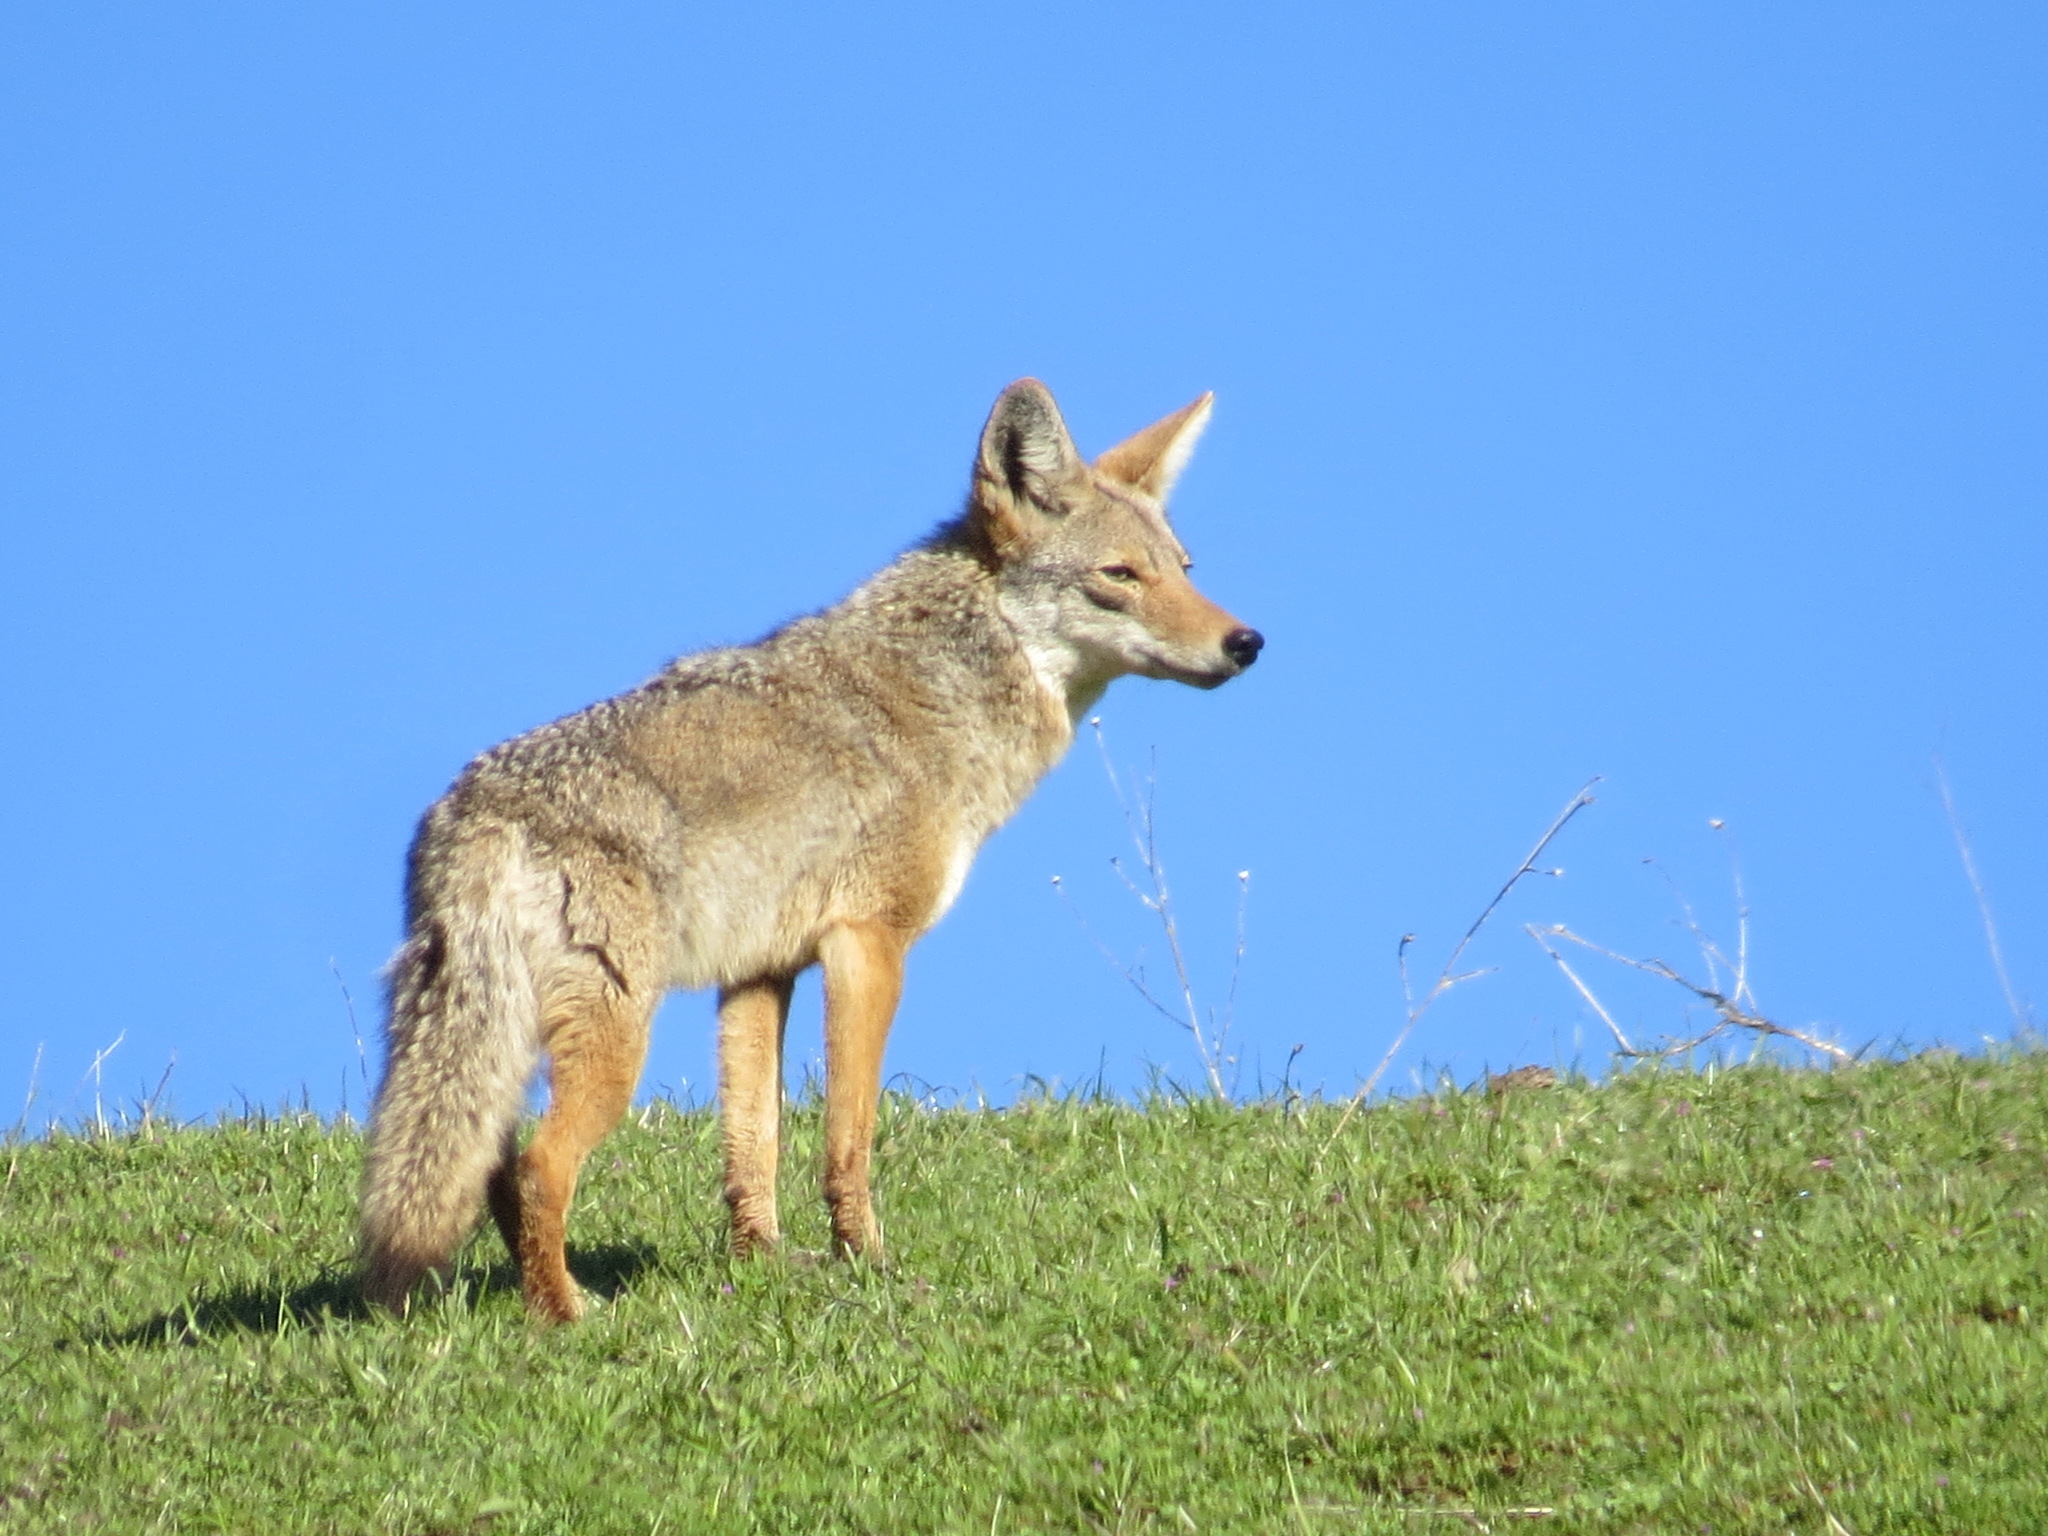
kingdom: Animalia
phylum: Chordata
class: Mammalia
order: Carnivora
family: Canidae
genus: Canis
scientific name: Canis latrans
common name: Coyote
